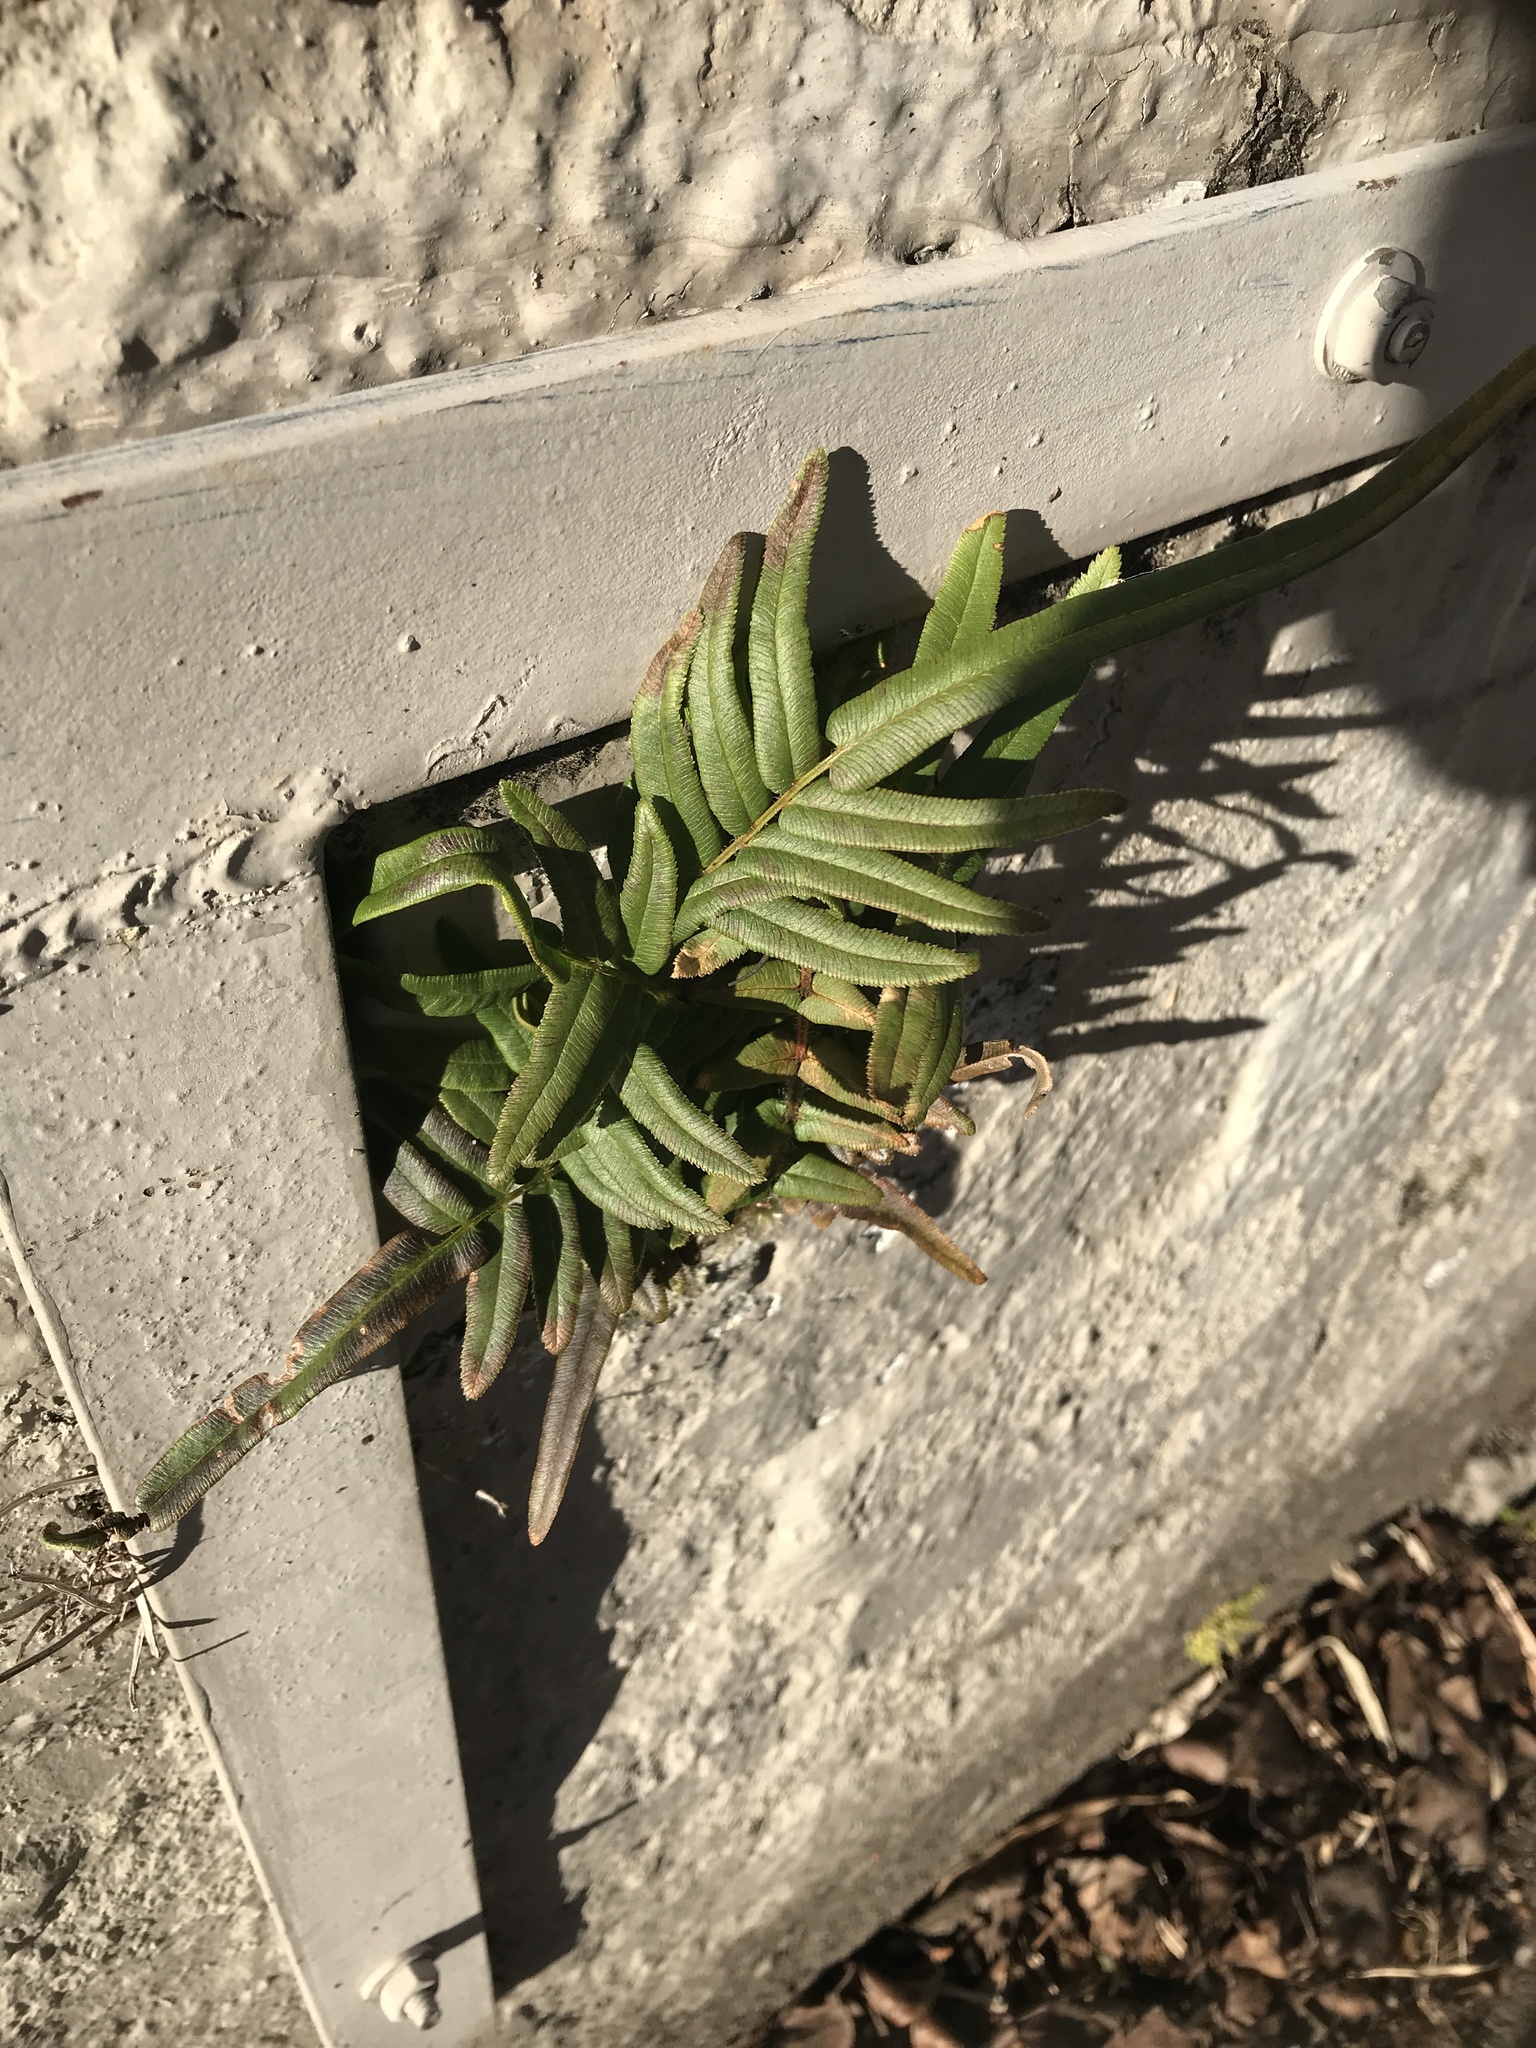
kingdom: Plantae
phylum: Tracheophyta
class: Polypodiopsida
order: Polypodiales
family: Pteridaceae
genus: Pteris
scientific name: Pteris vittata
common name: Ladder brake
